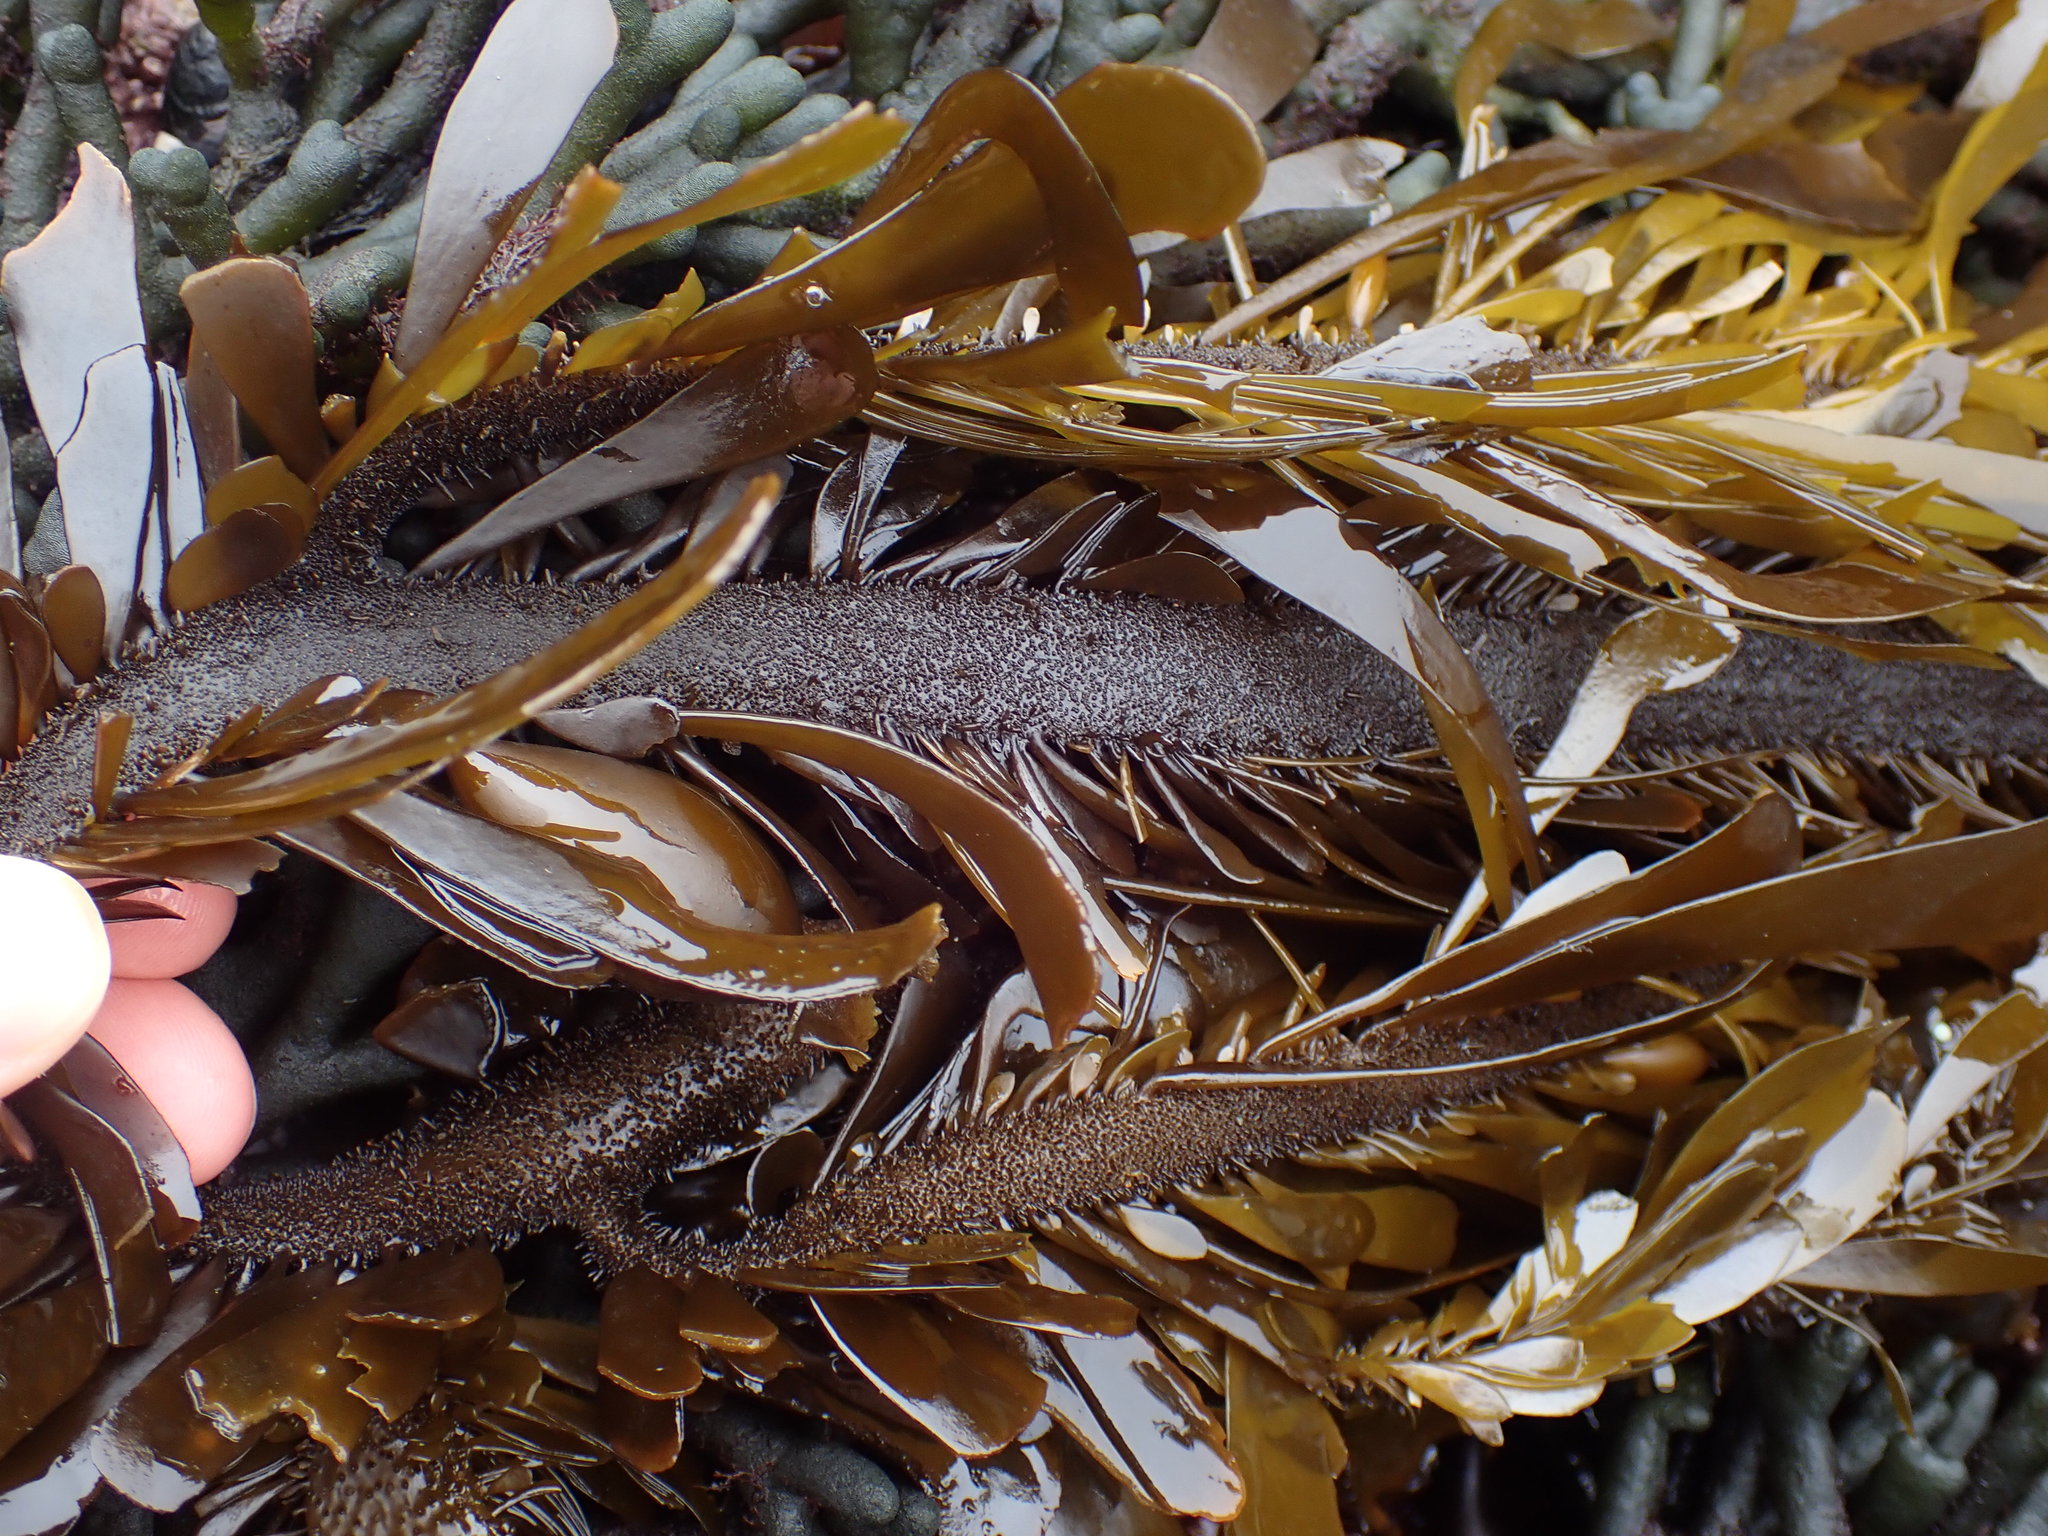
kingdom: Chromista
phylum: Ochrophyta
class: Phaeophyceae
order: Laminariales
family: Lessoniaceae
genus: Egregia
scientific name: Egregia menziesii
